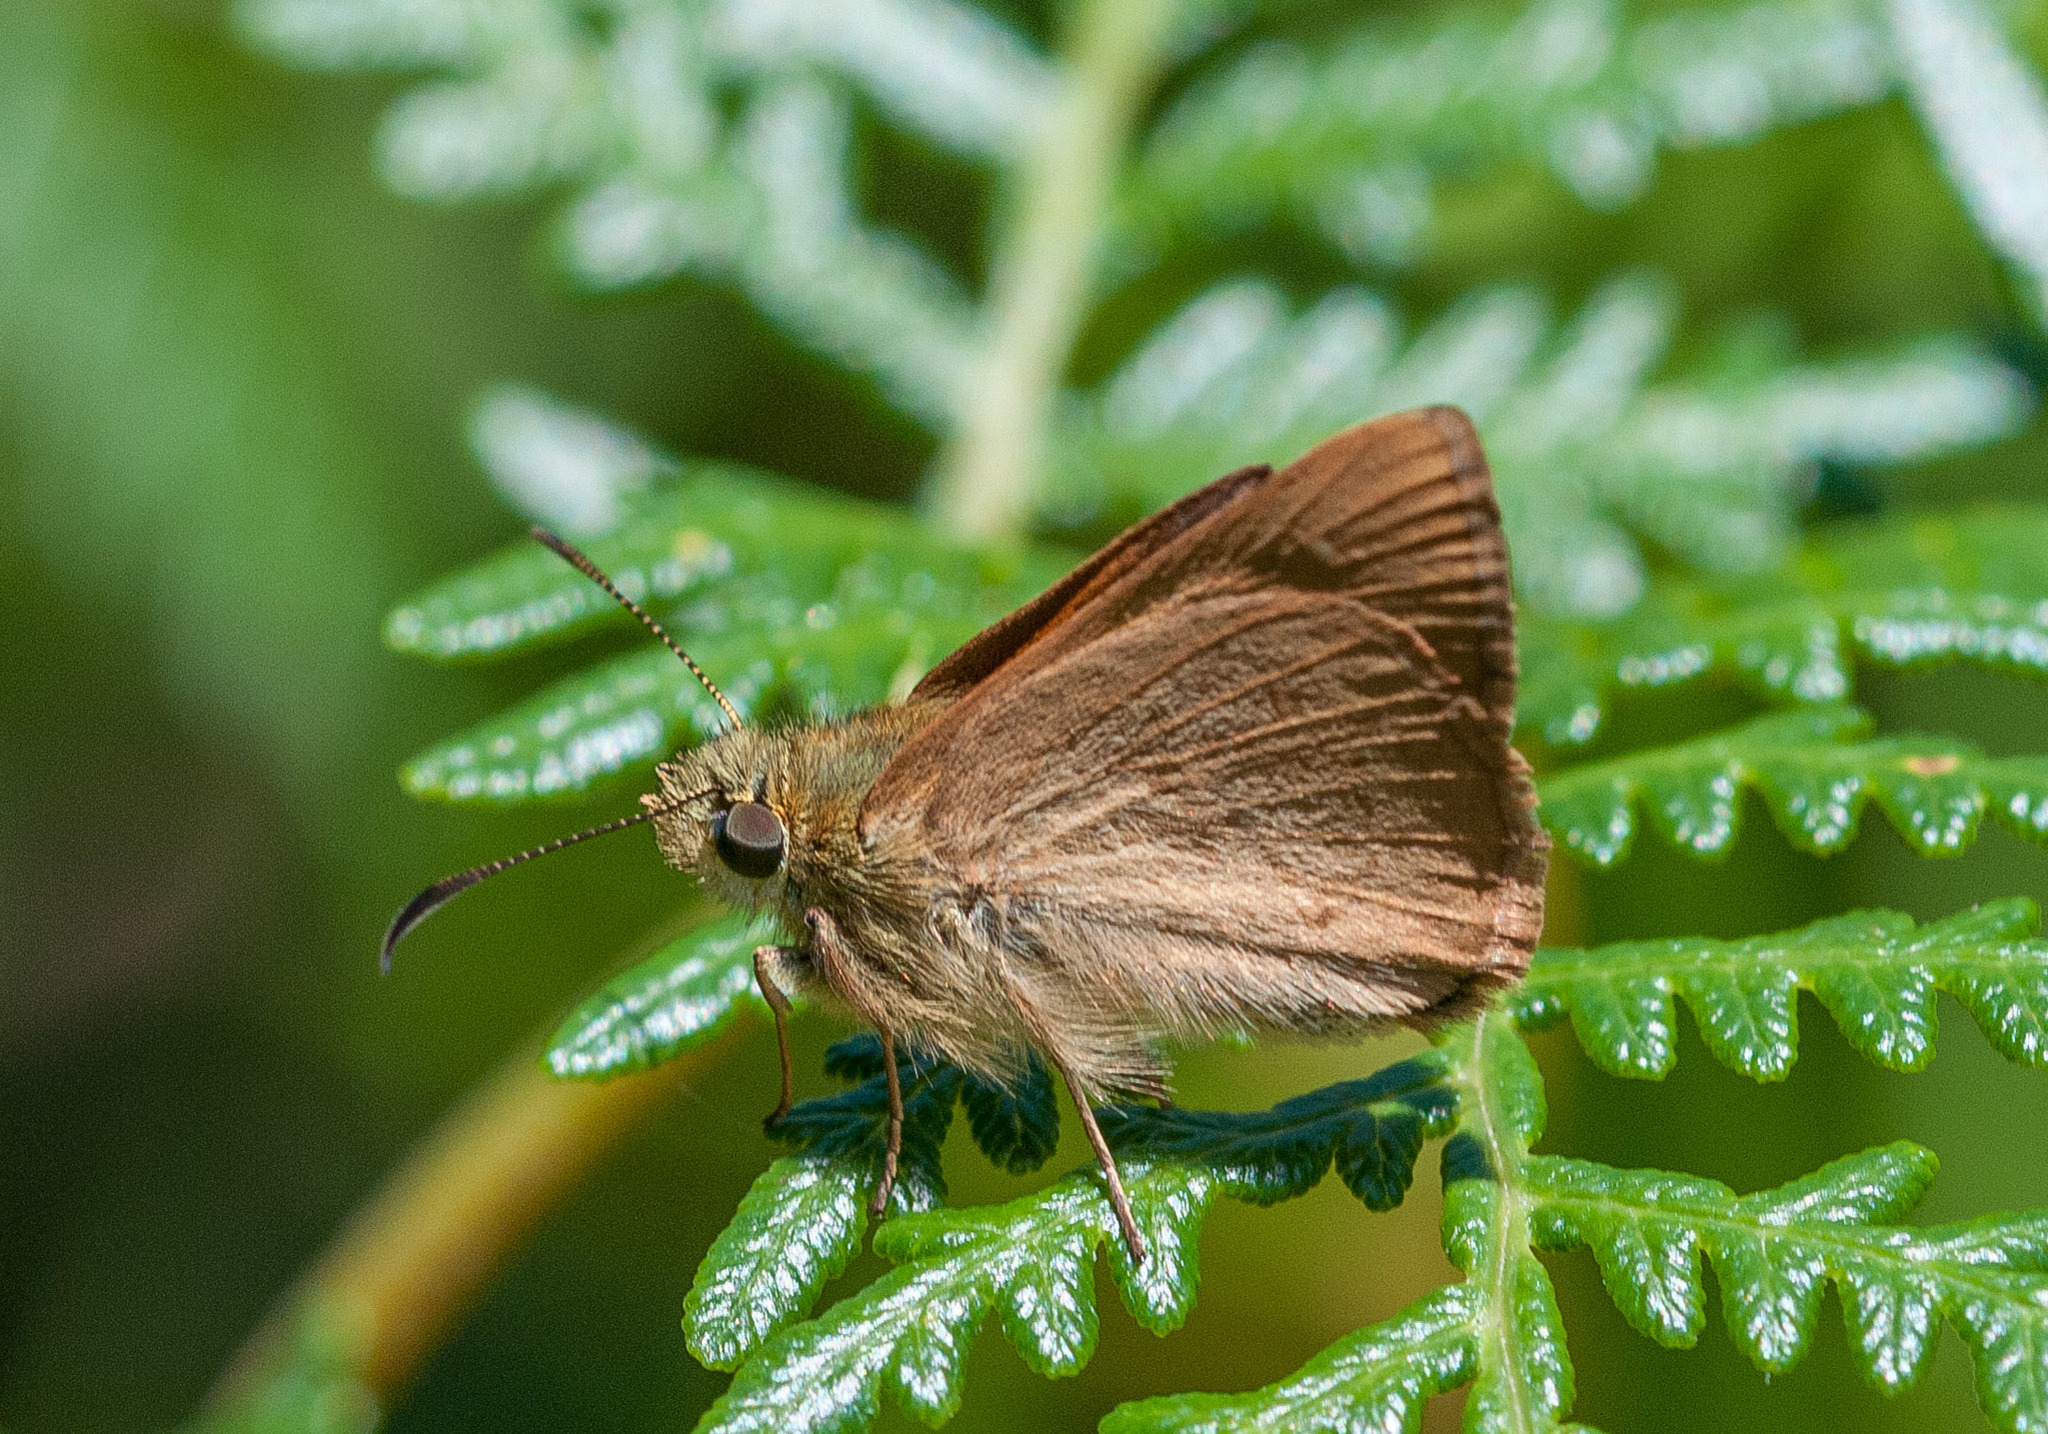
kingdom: Animalia
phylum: Arthropoda
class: Insecta
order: Lepidoptera
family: Hesperiidae
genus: Toxidia
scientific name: Toxidia
